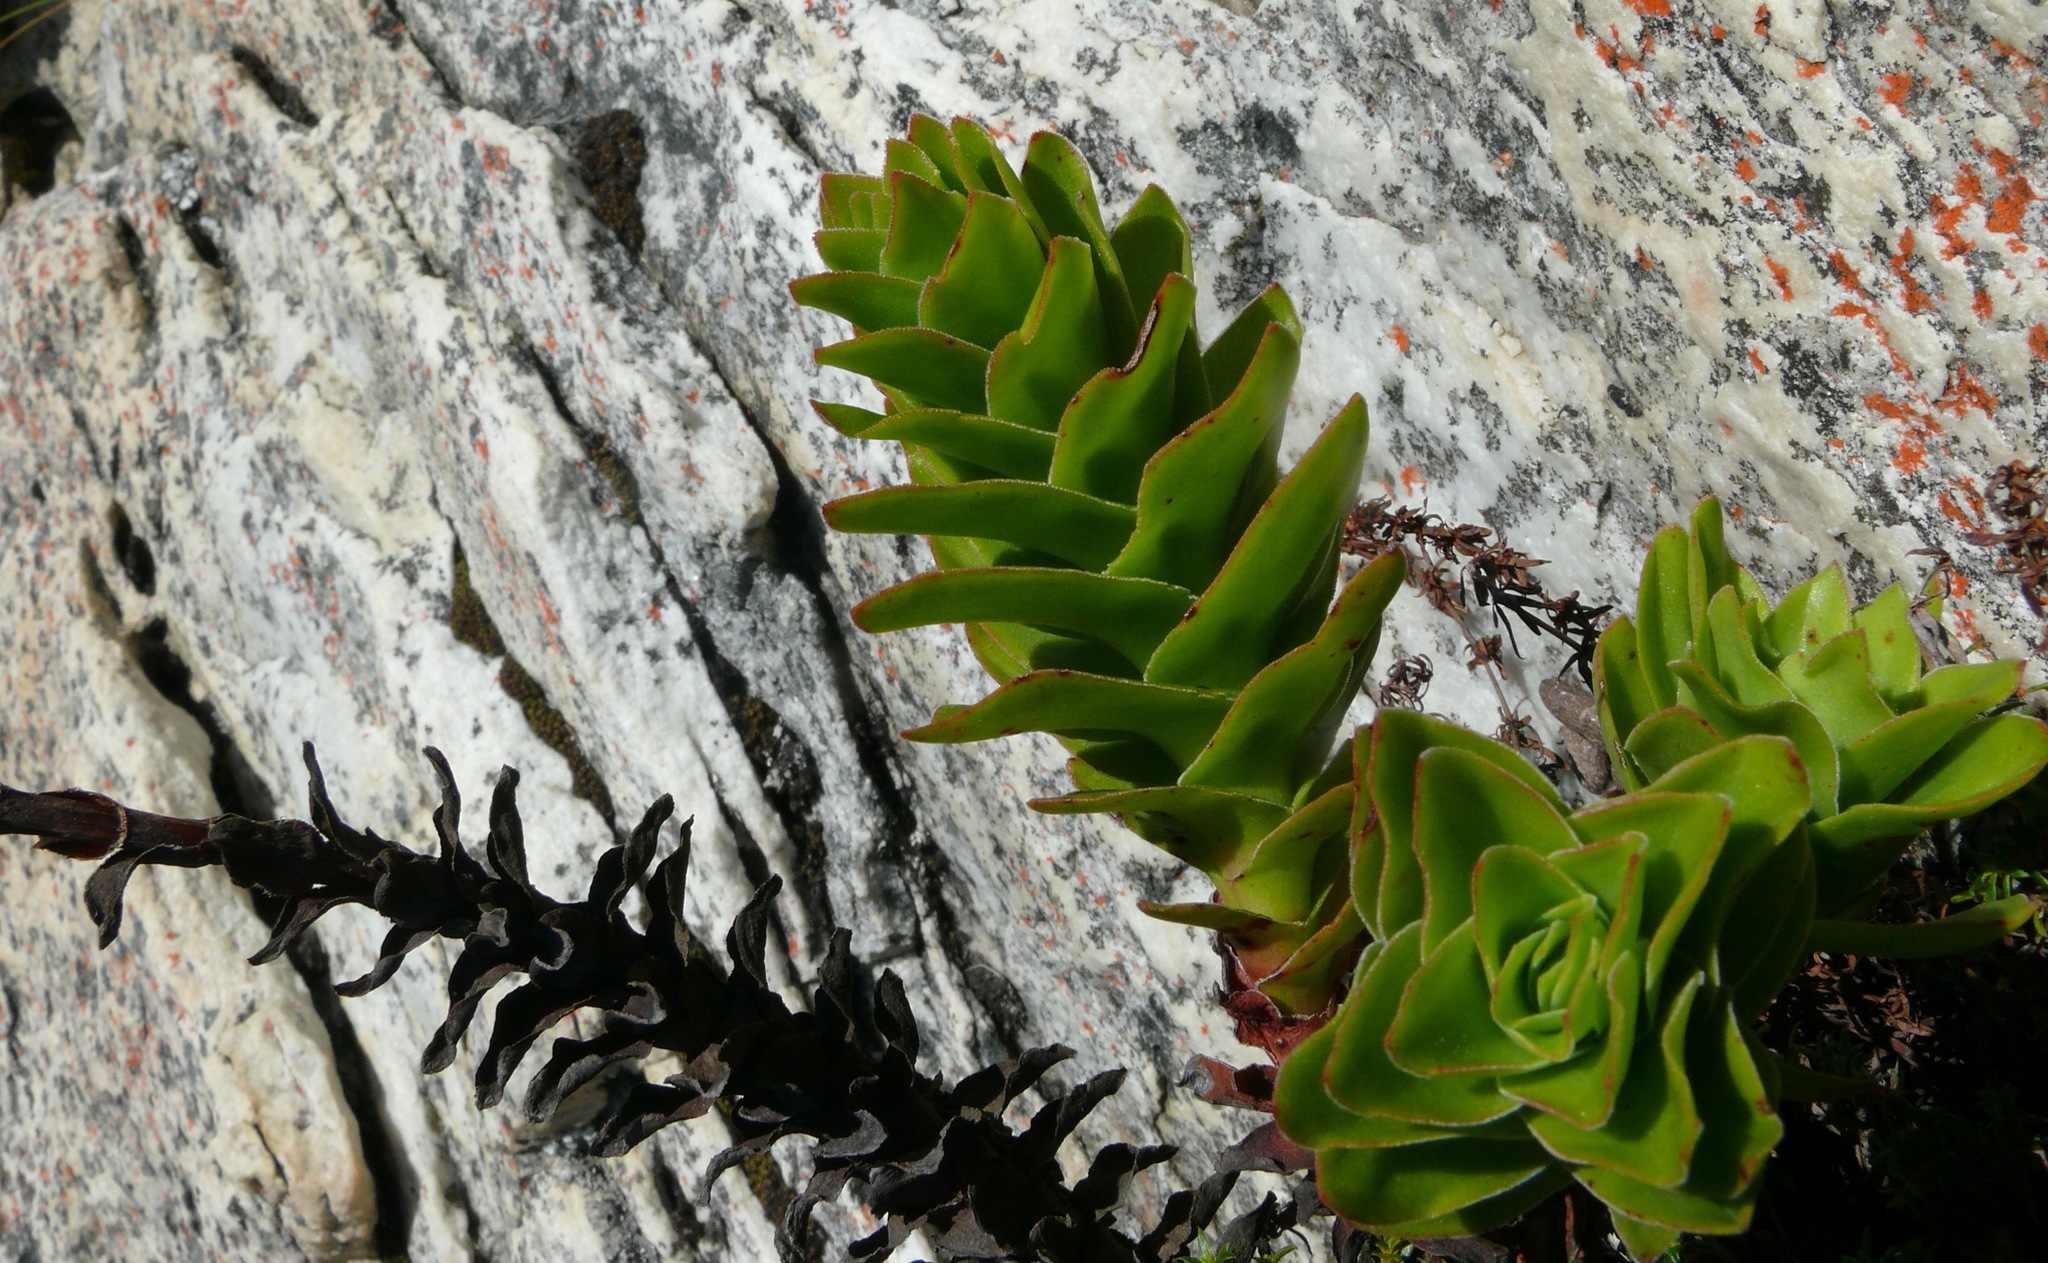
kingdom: Plantae
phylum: Tracheophyta
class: Magnoliopsida
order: Saxifragales
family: Crassulaceae
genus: Crassula
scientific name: Crassula coccinea
